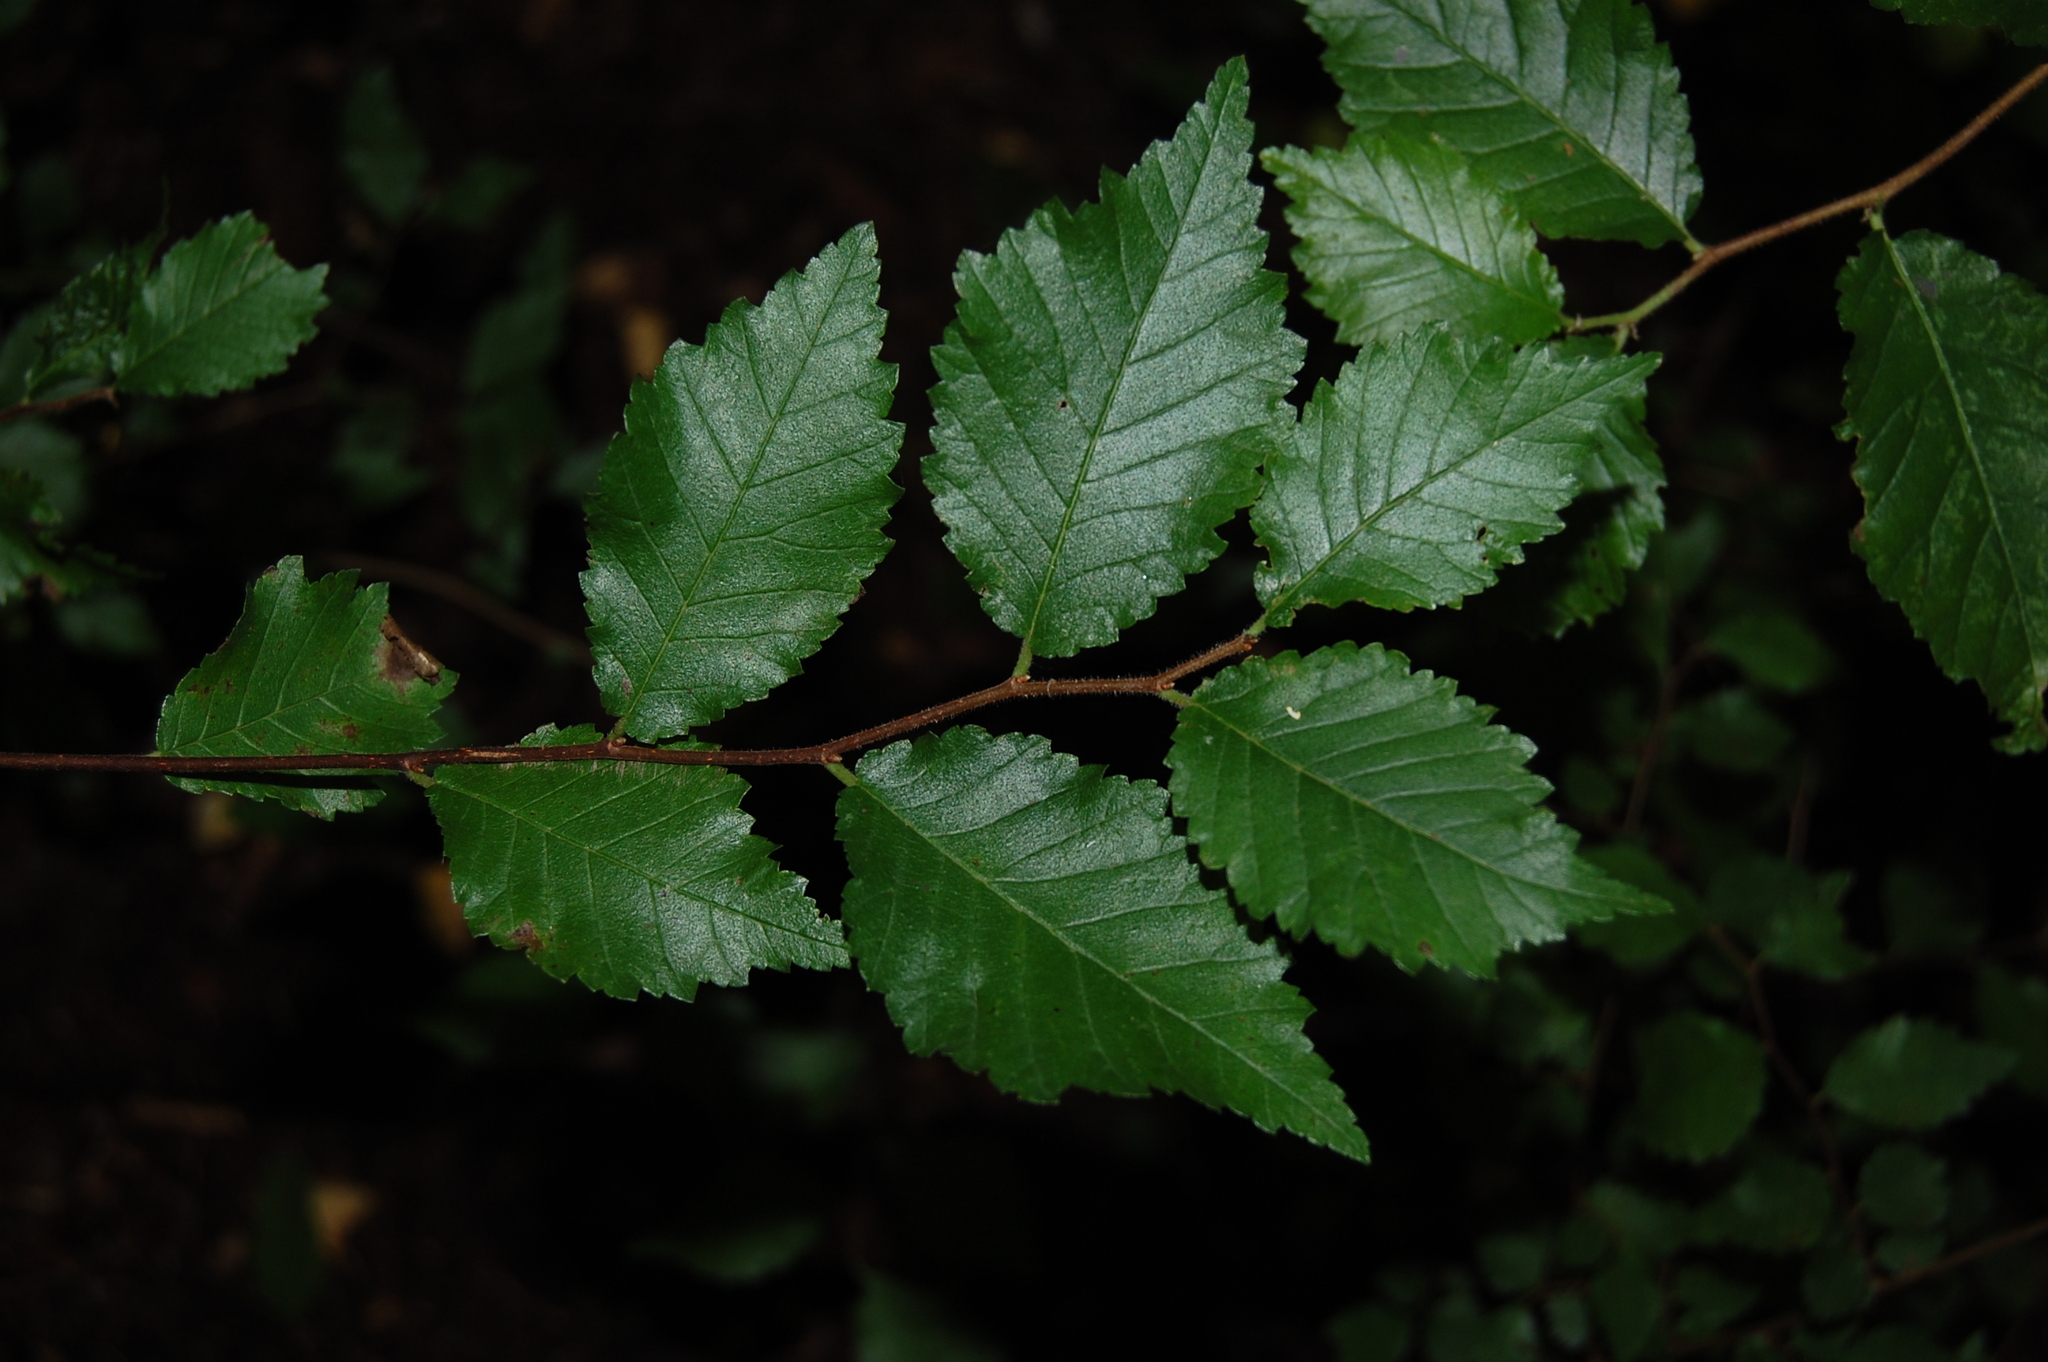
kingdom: Plantae
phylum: Tracheophyta
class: Magnoliopsida
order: Rosales
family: Ulmaceae
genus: Ulmus
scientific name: Ulmus minor
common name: Small-leaved elm
